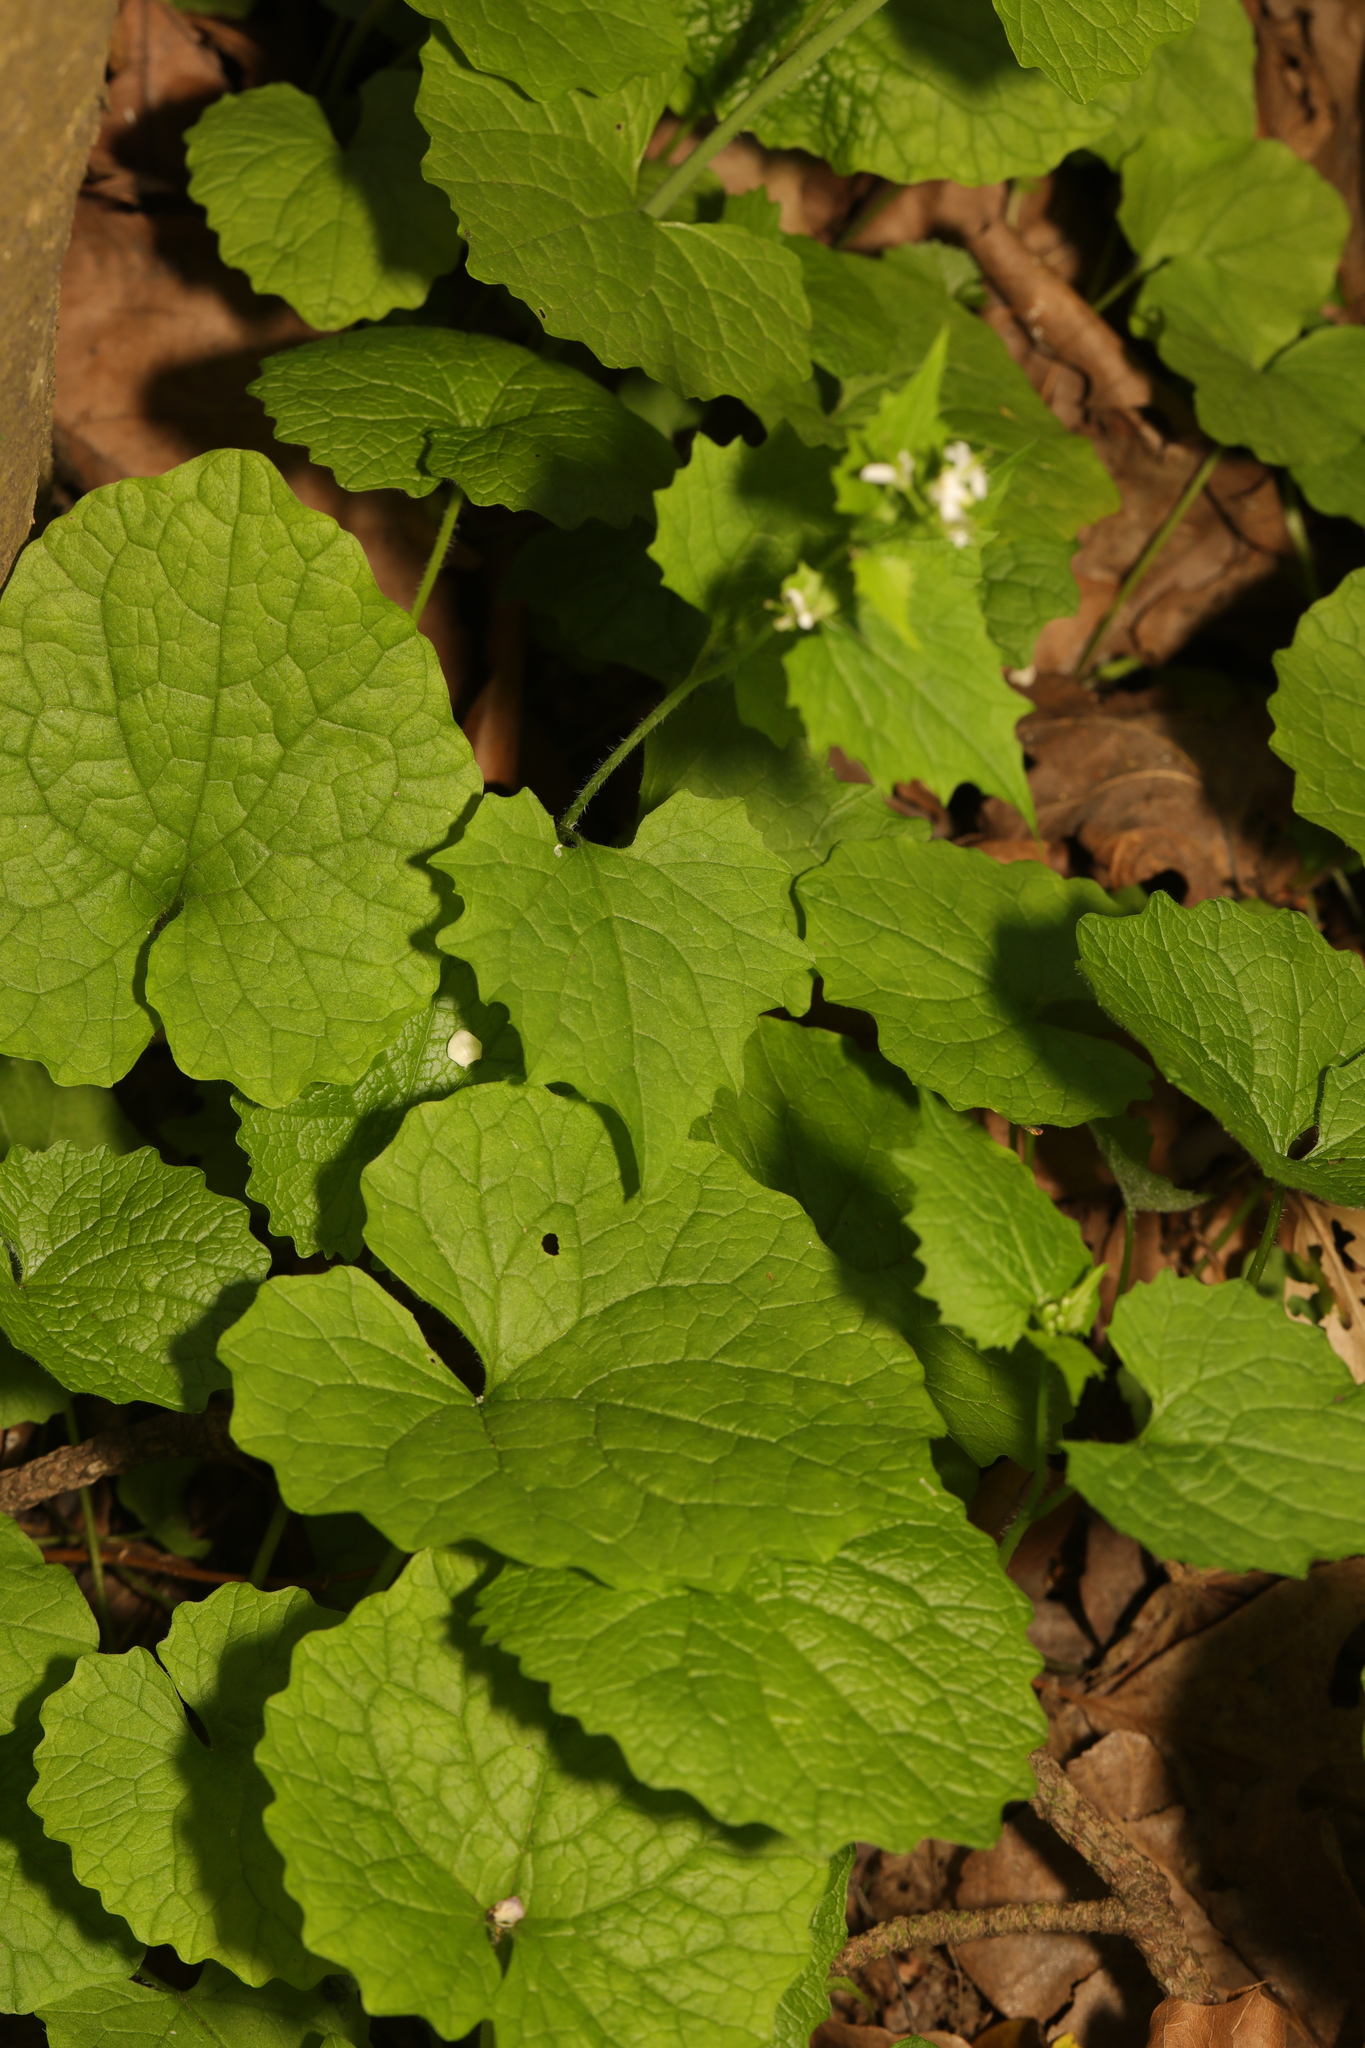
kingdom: Plantae
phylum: Tracheophyta
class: Magnoliopsida
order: Brassicales
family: Brassicaceae
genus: Alliaria
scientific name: Alliaria petiolata
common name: Garlic mustard
